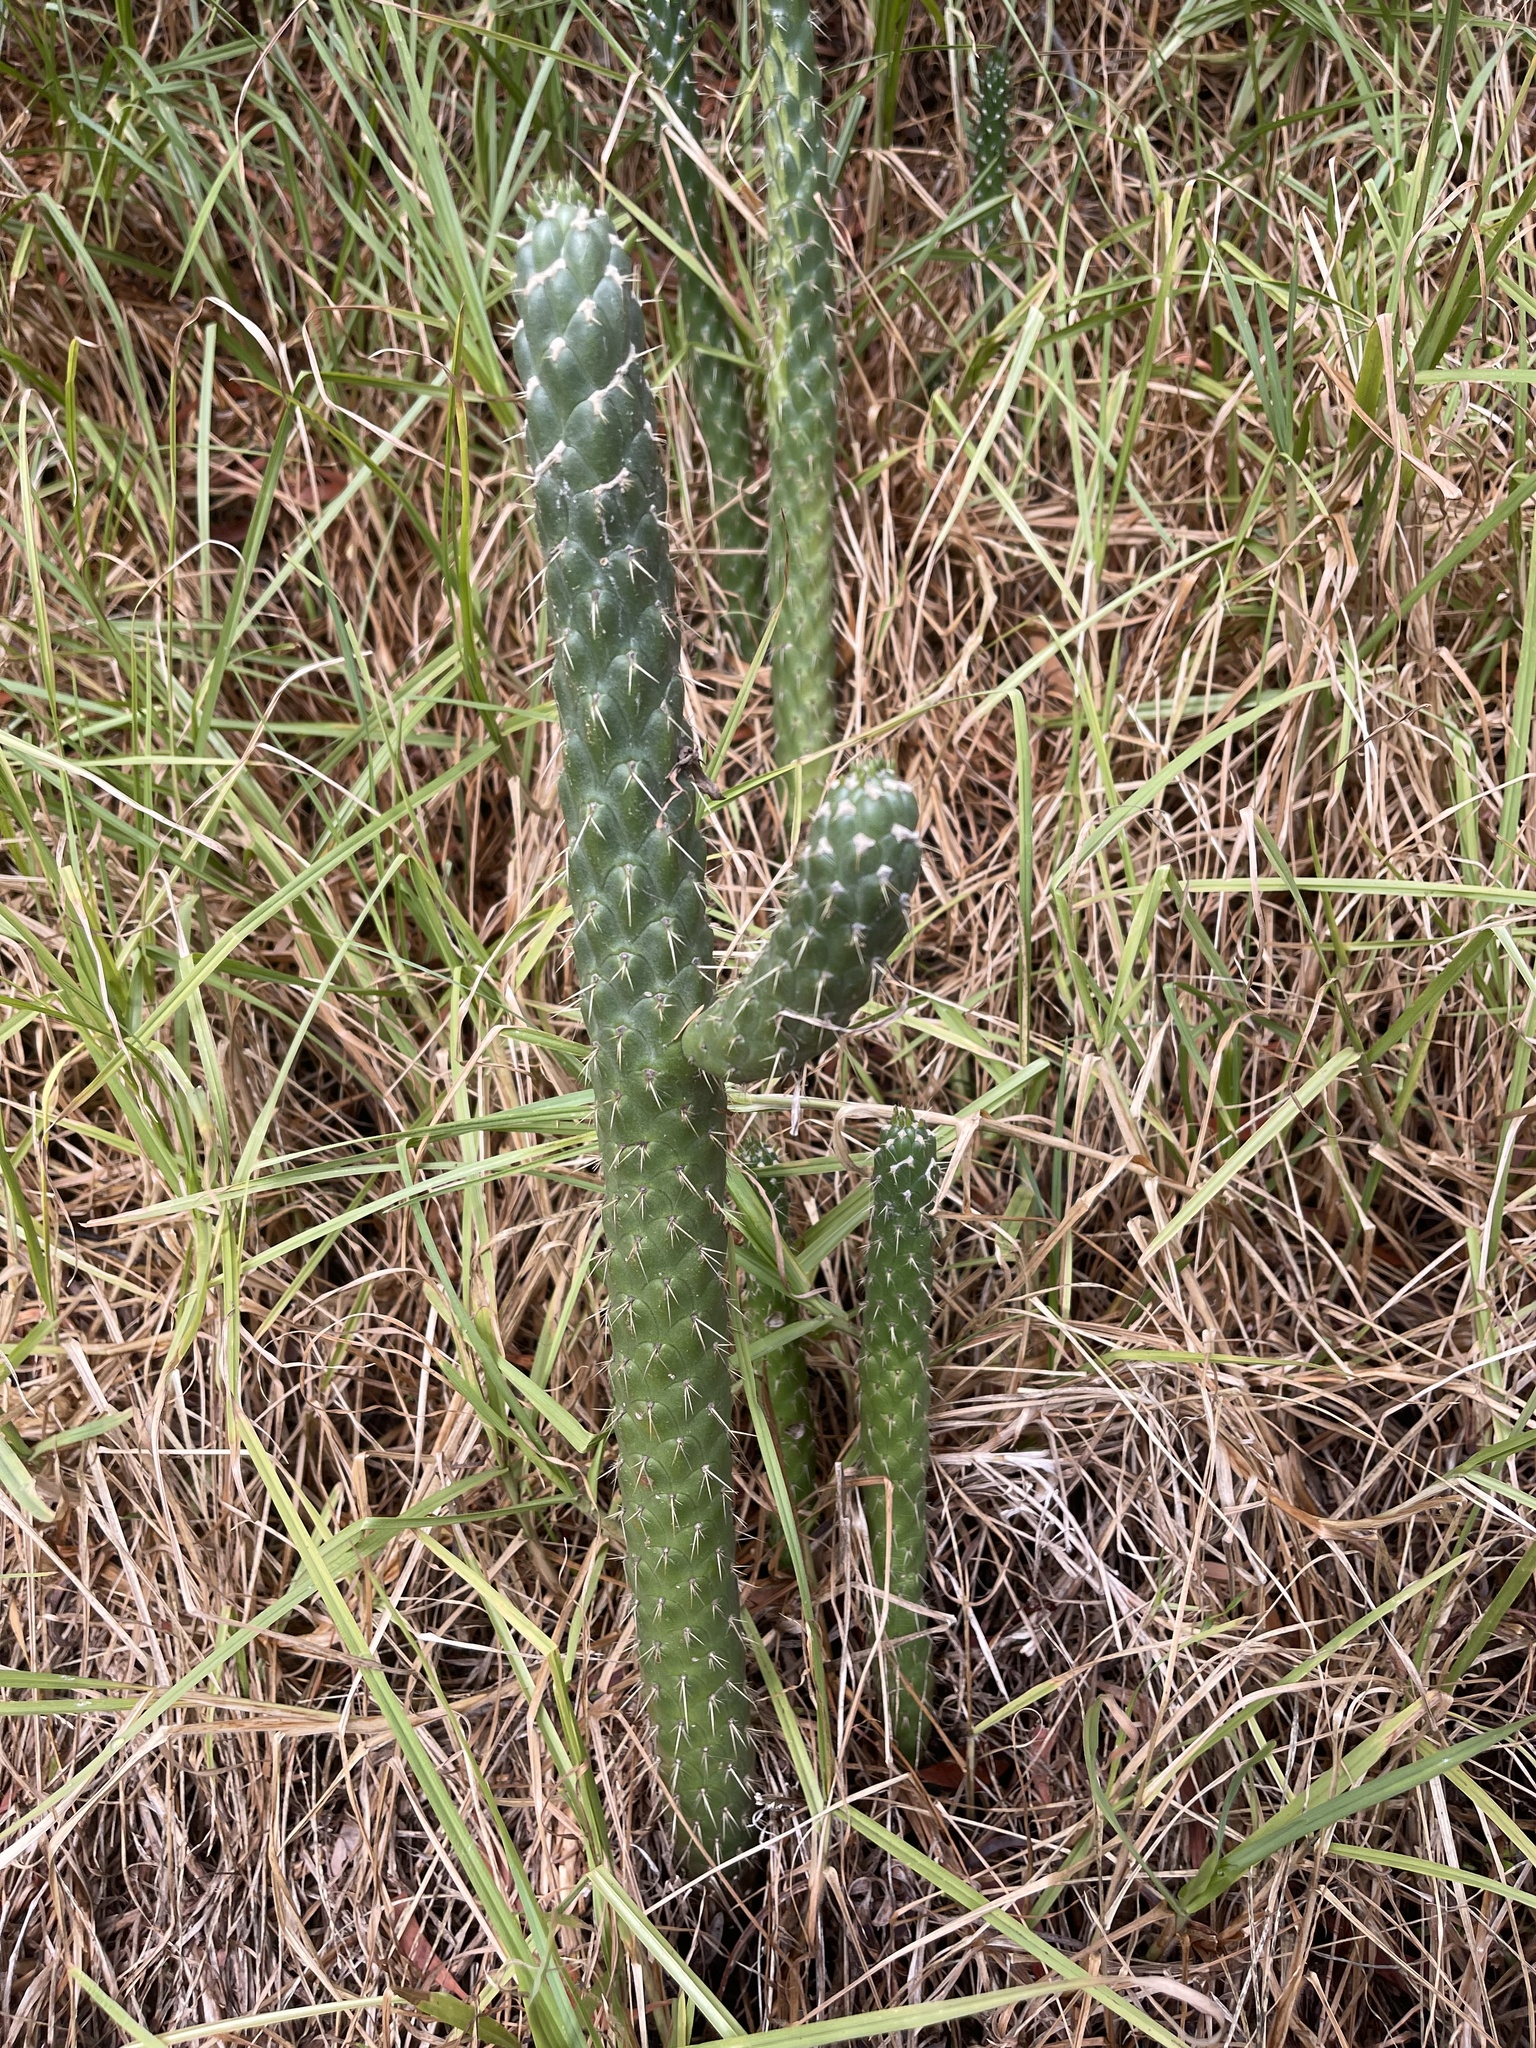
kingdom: Plantae
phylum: Tracheophyta
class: Magnoliopsida
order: Caryophyllales
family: Cactaceae
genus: Austrocylindropuntia
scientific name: Austrocylindropuntia cylindrica
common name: Cane cactus
